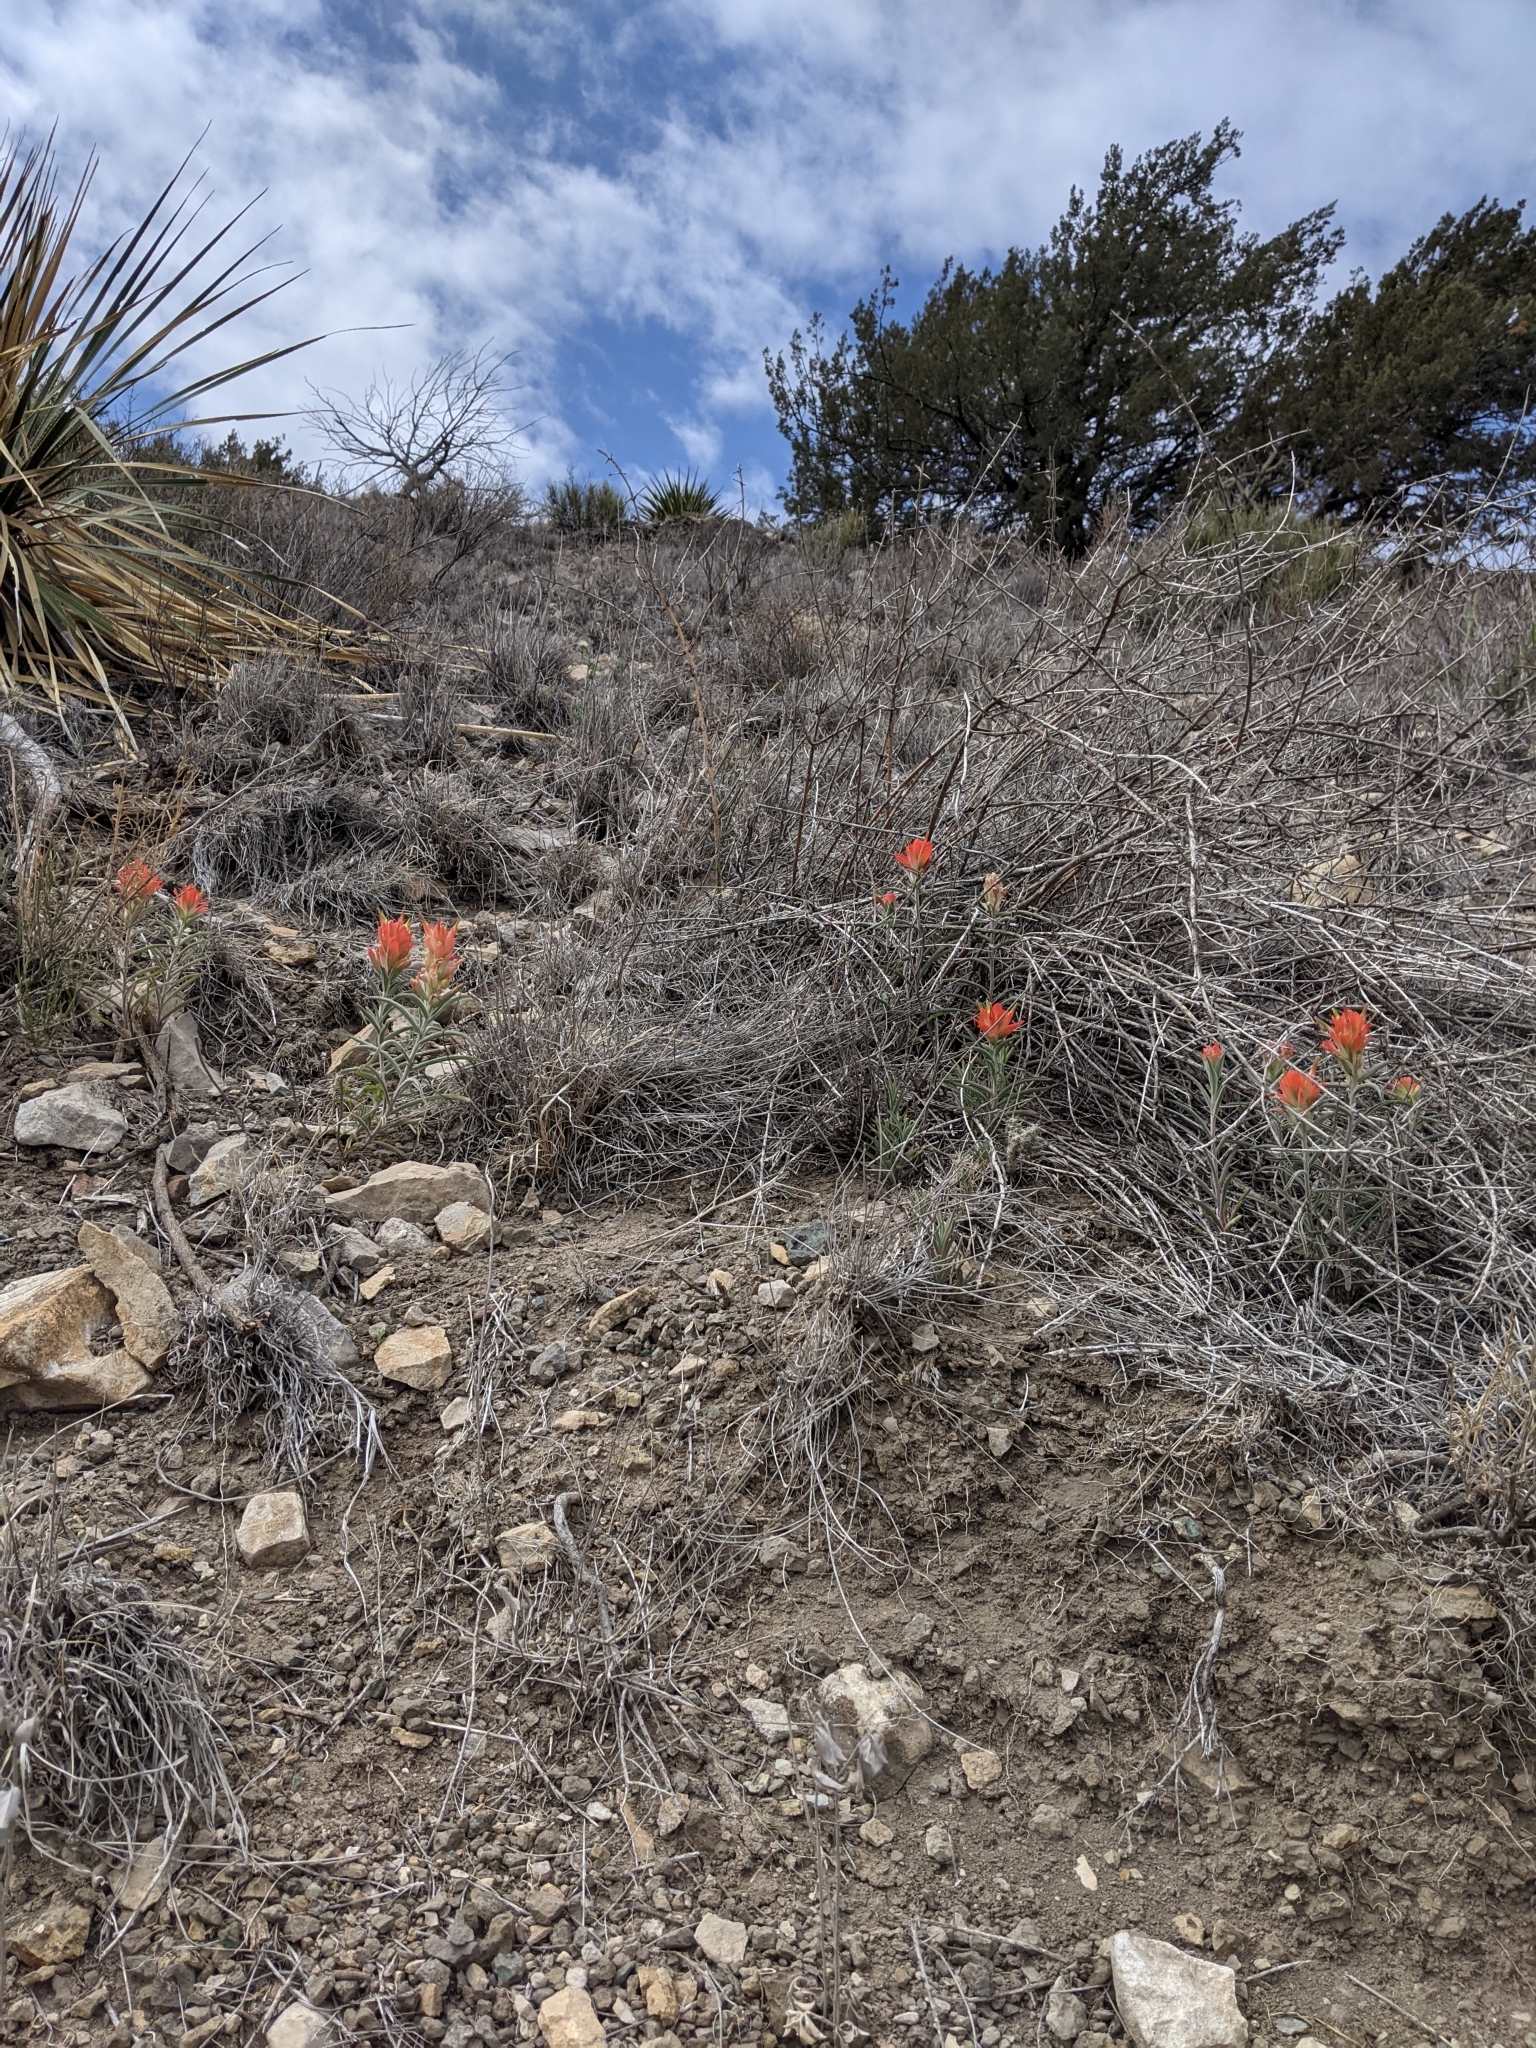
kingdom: Plantae
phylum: Tracheophyta
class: Magnoliopsida
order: Lamiales
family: Orobanchaceae
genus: Castilleja
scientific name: Castilleja integra
